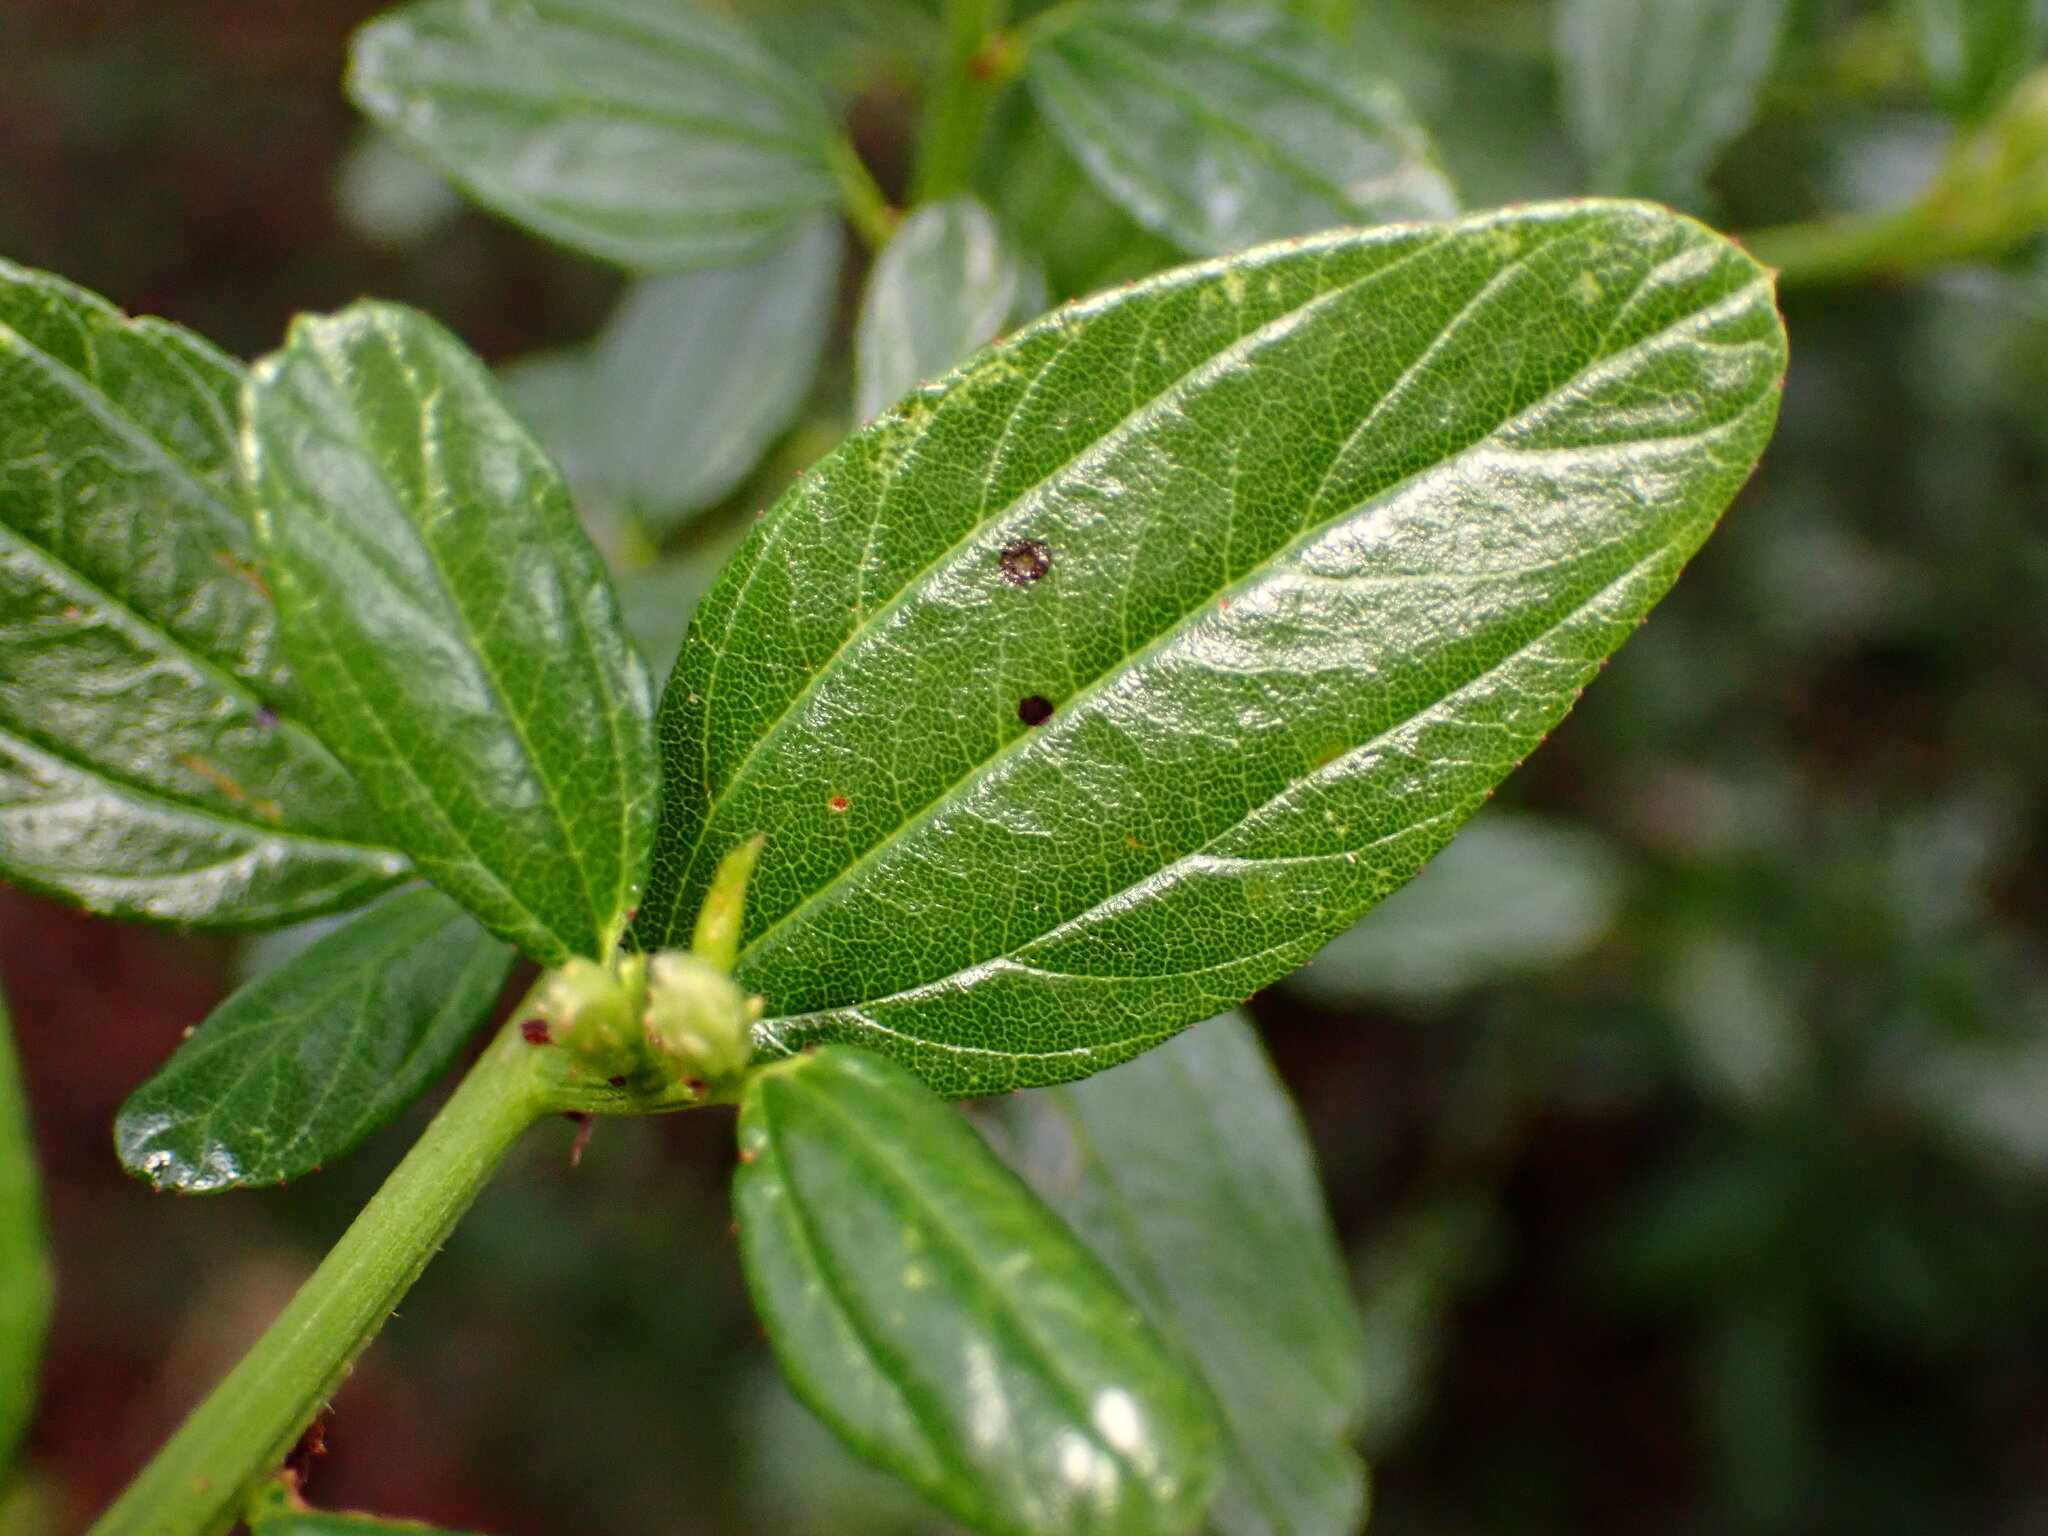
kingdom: Plantae
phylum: Tracheophyta
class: Magnoliopsida
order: Rosales
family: Rhamnaceae
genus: Ceanothus
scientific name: Ceanothus thyrsiflorus
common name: California-lilac
